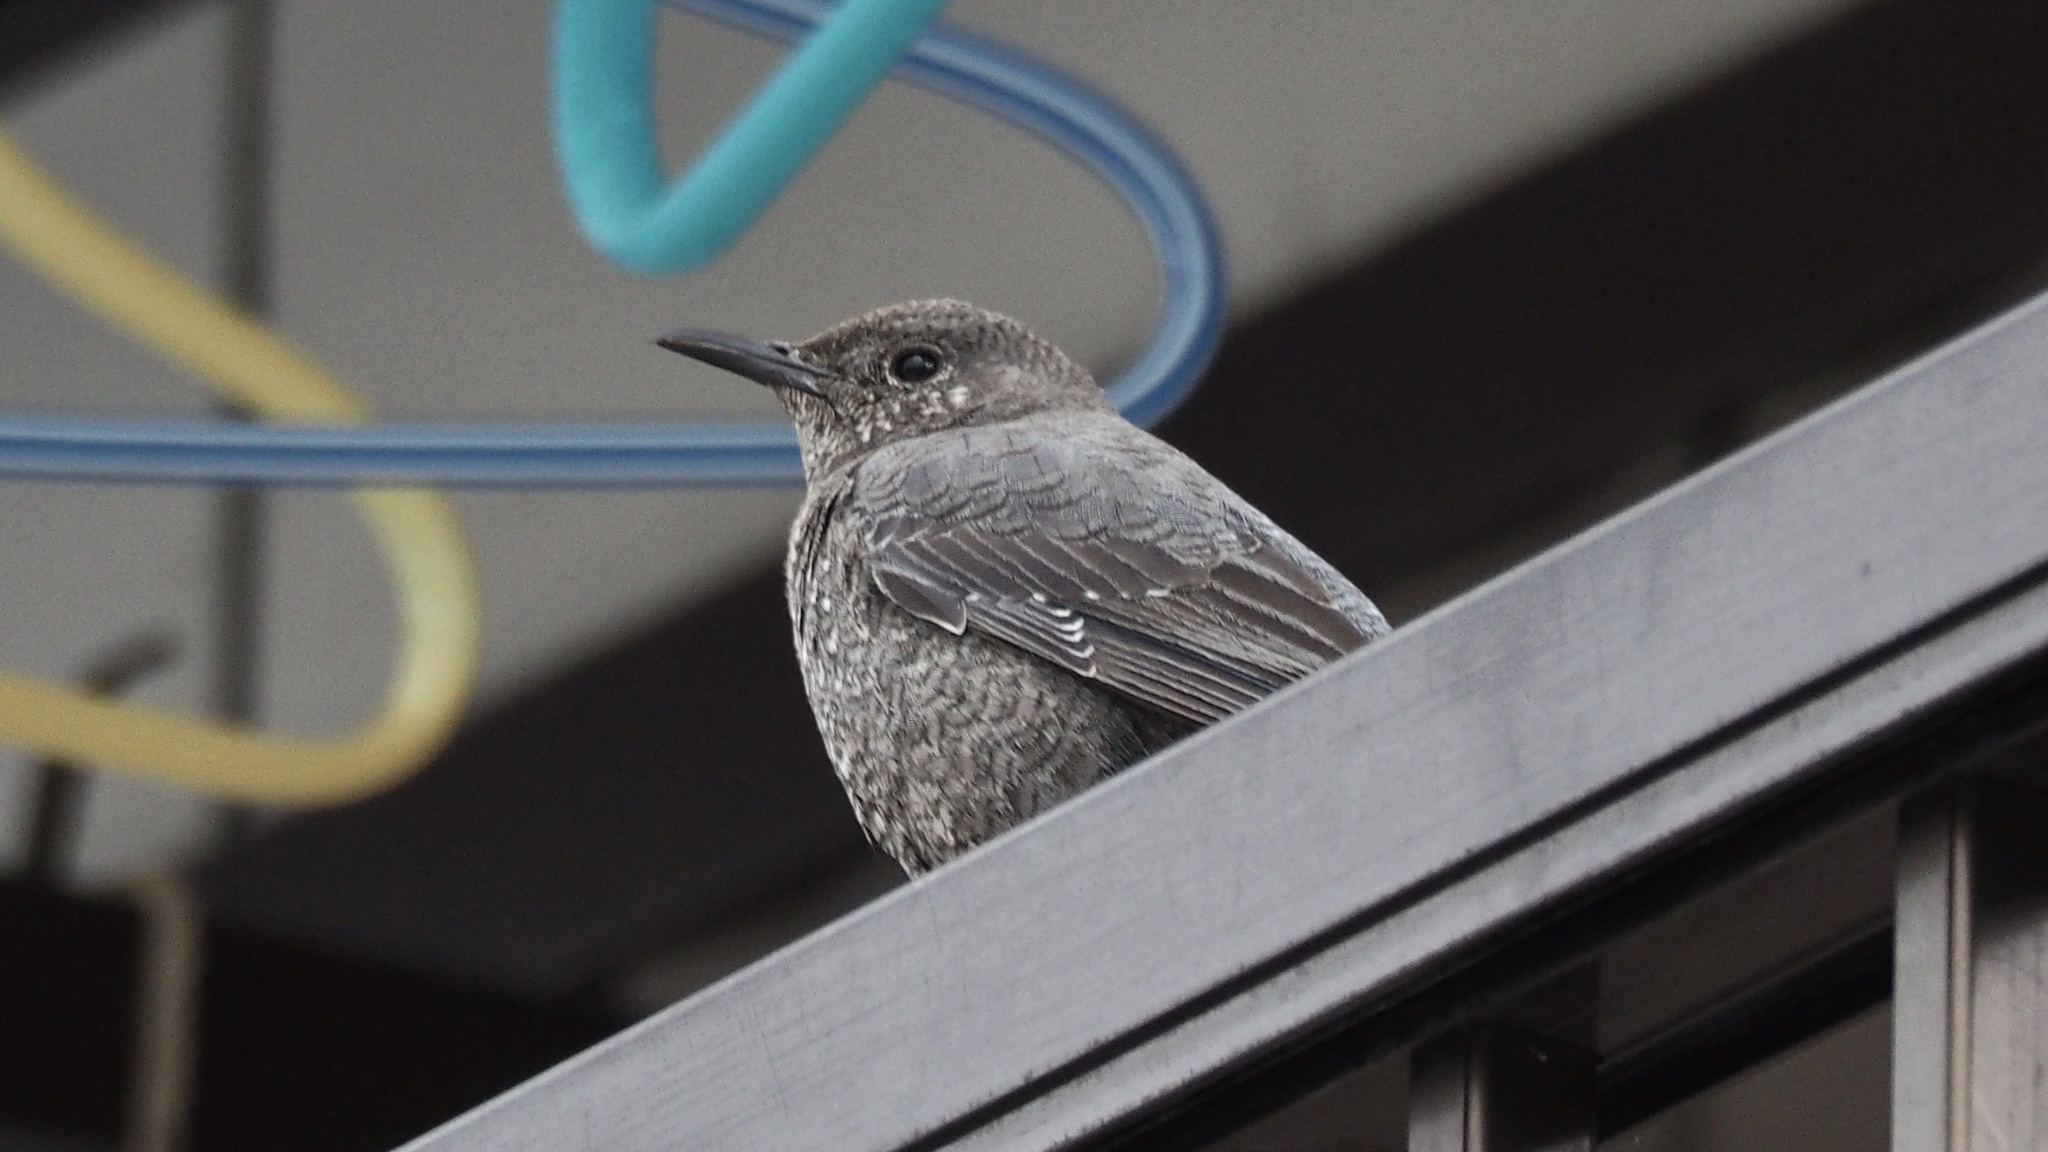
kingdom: Animalia
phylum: Chordata
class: Aves
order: Passeriformes
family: Muscicapidae
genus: Monticola
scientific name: Monticola solitarius
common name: Blue rock thrush
